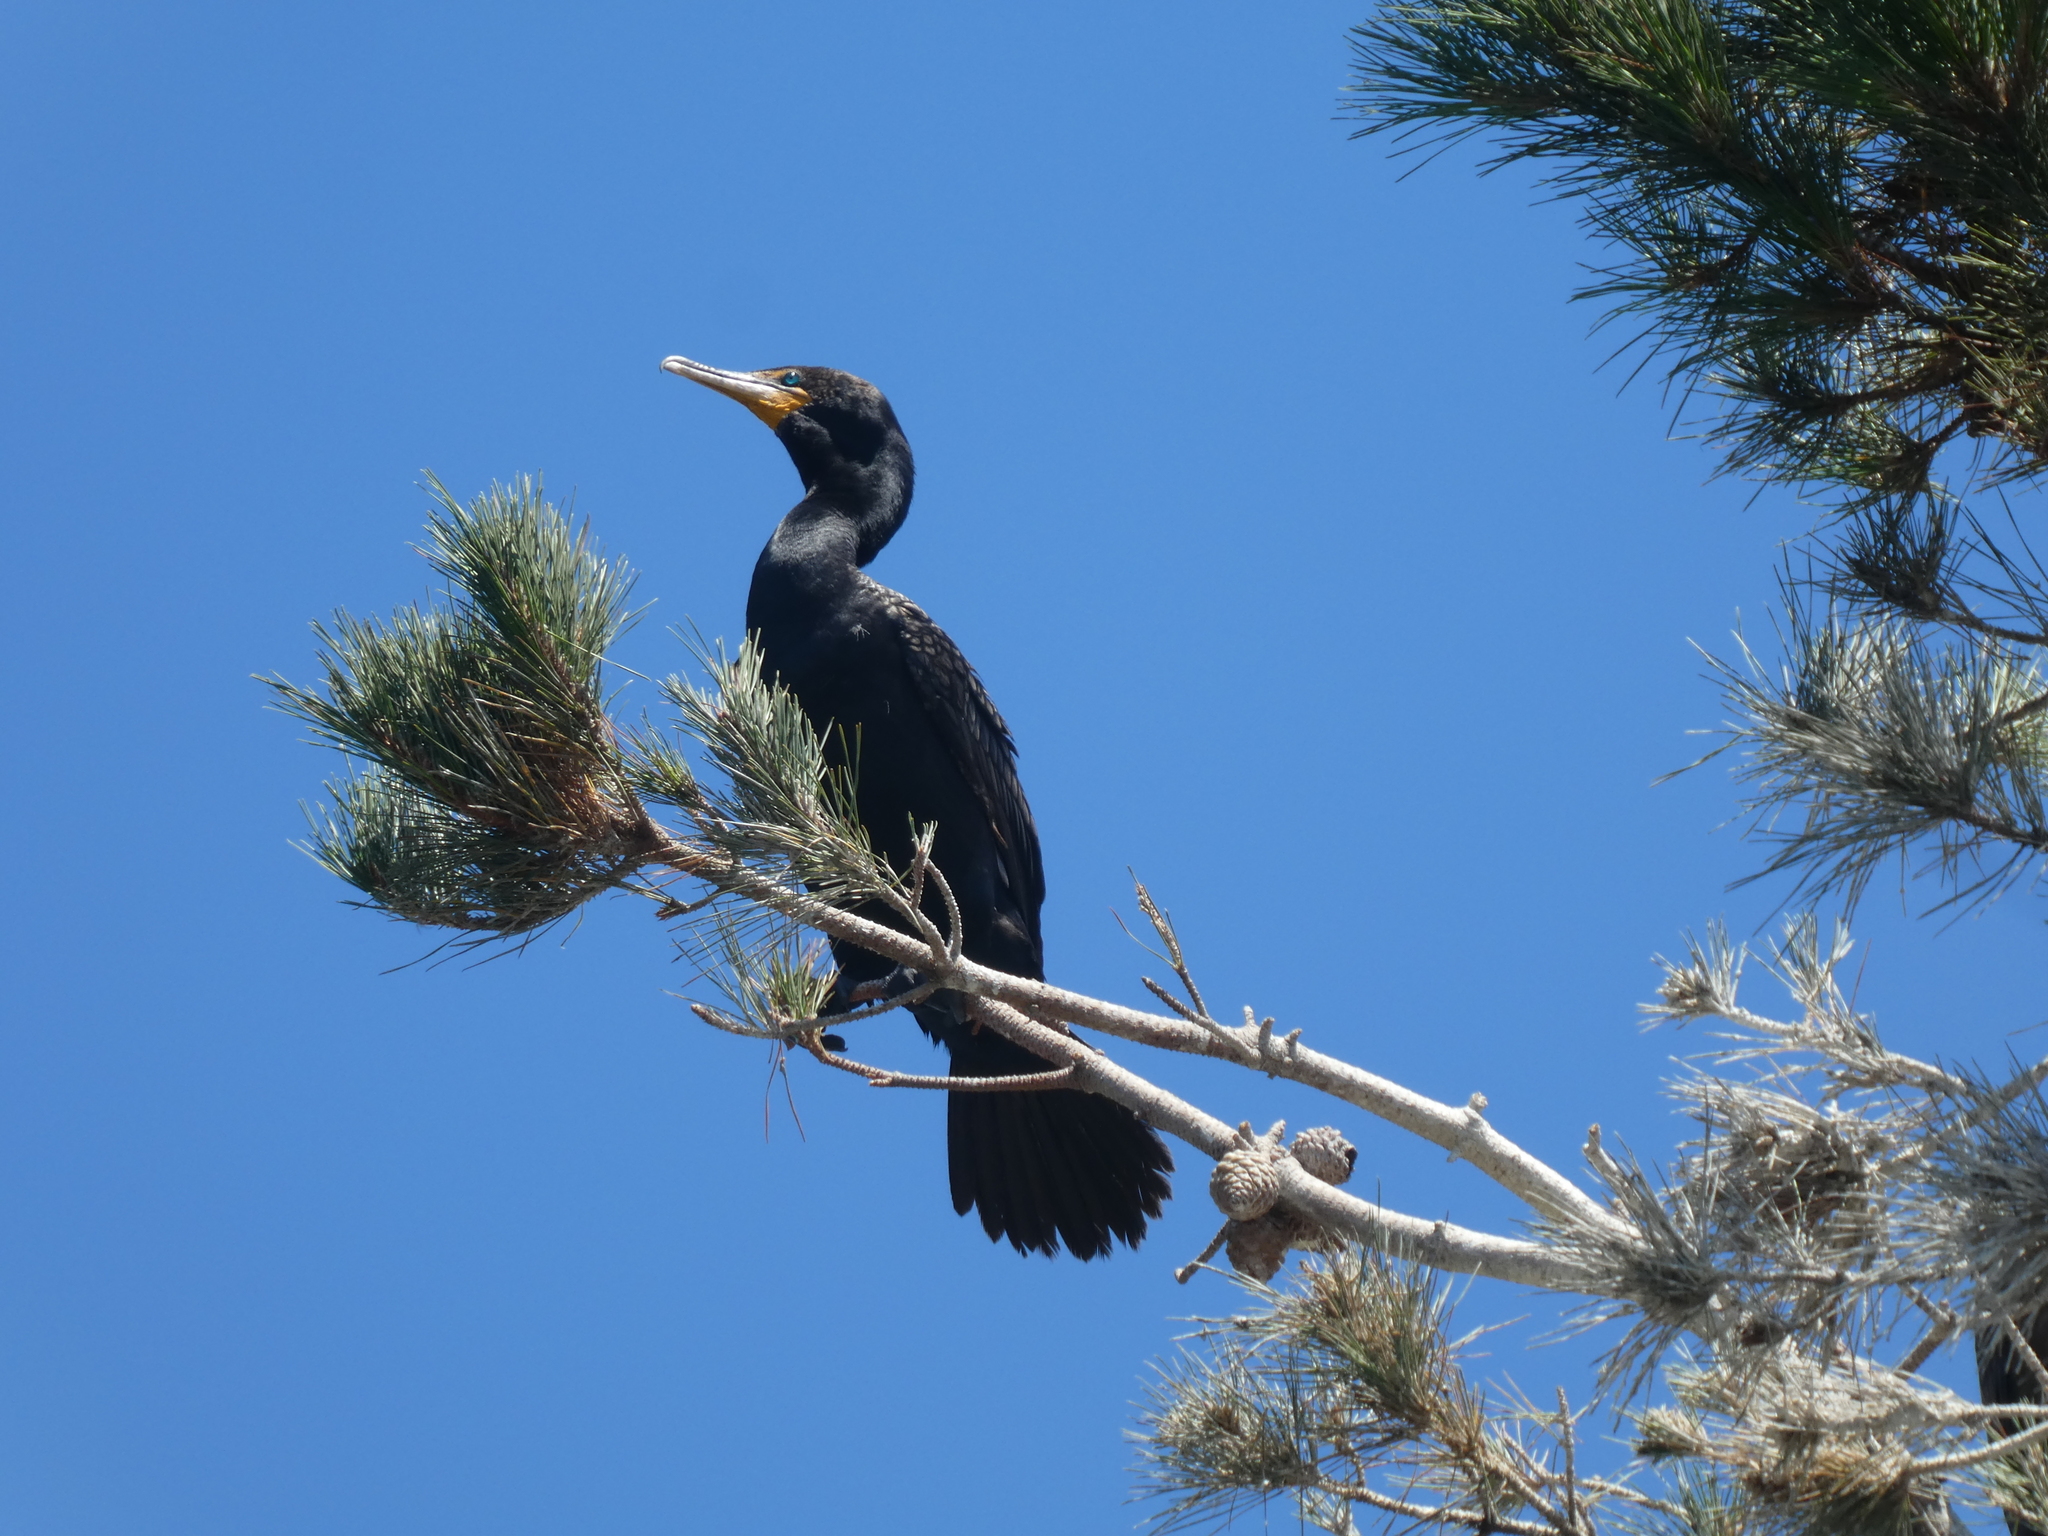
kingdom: Animalia
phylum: Chordata
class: Aves
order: Suliformes
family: Phalacrocoracidae
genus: Phalacrocorax
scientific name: Phalacrocorax auritus
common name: Double-crested cormorant
